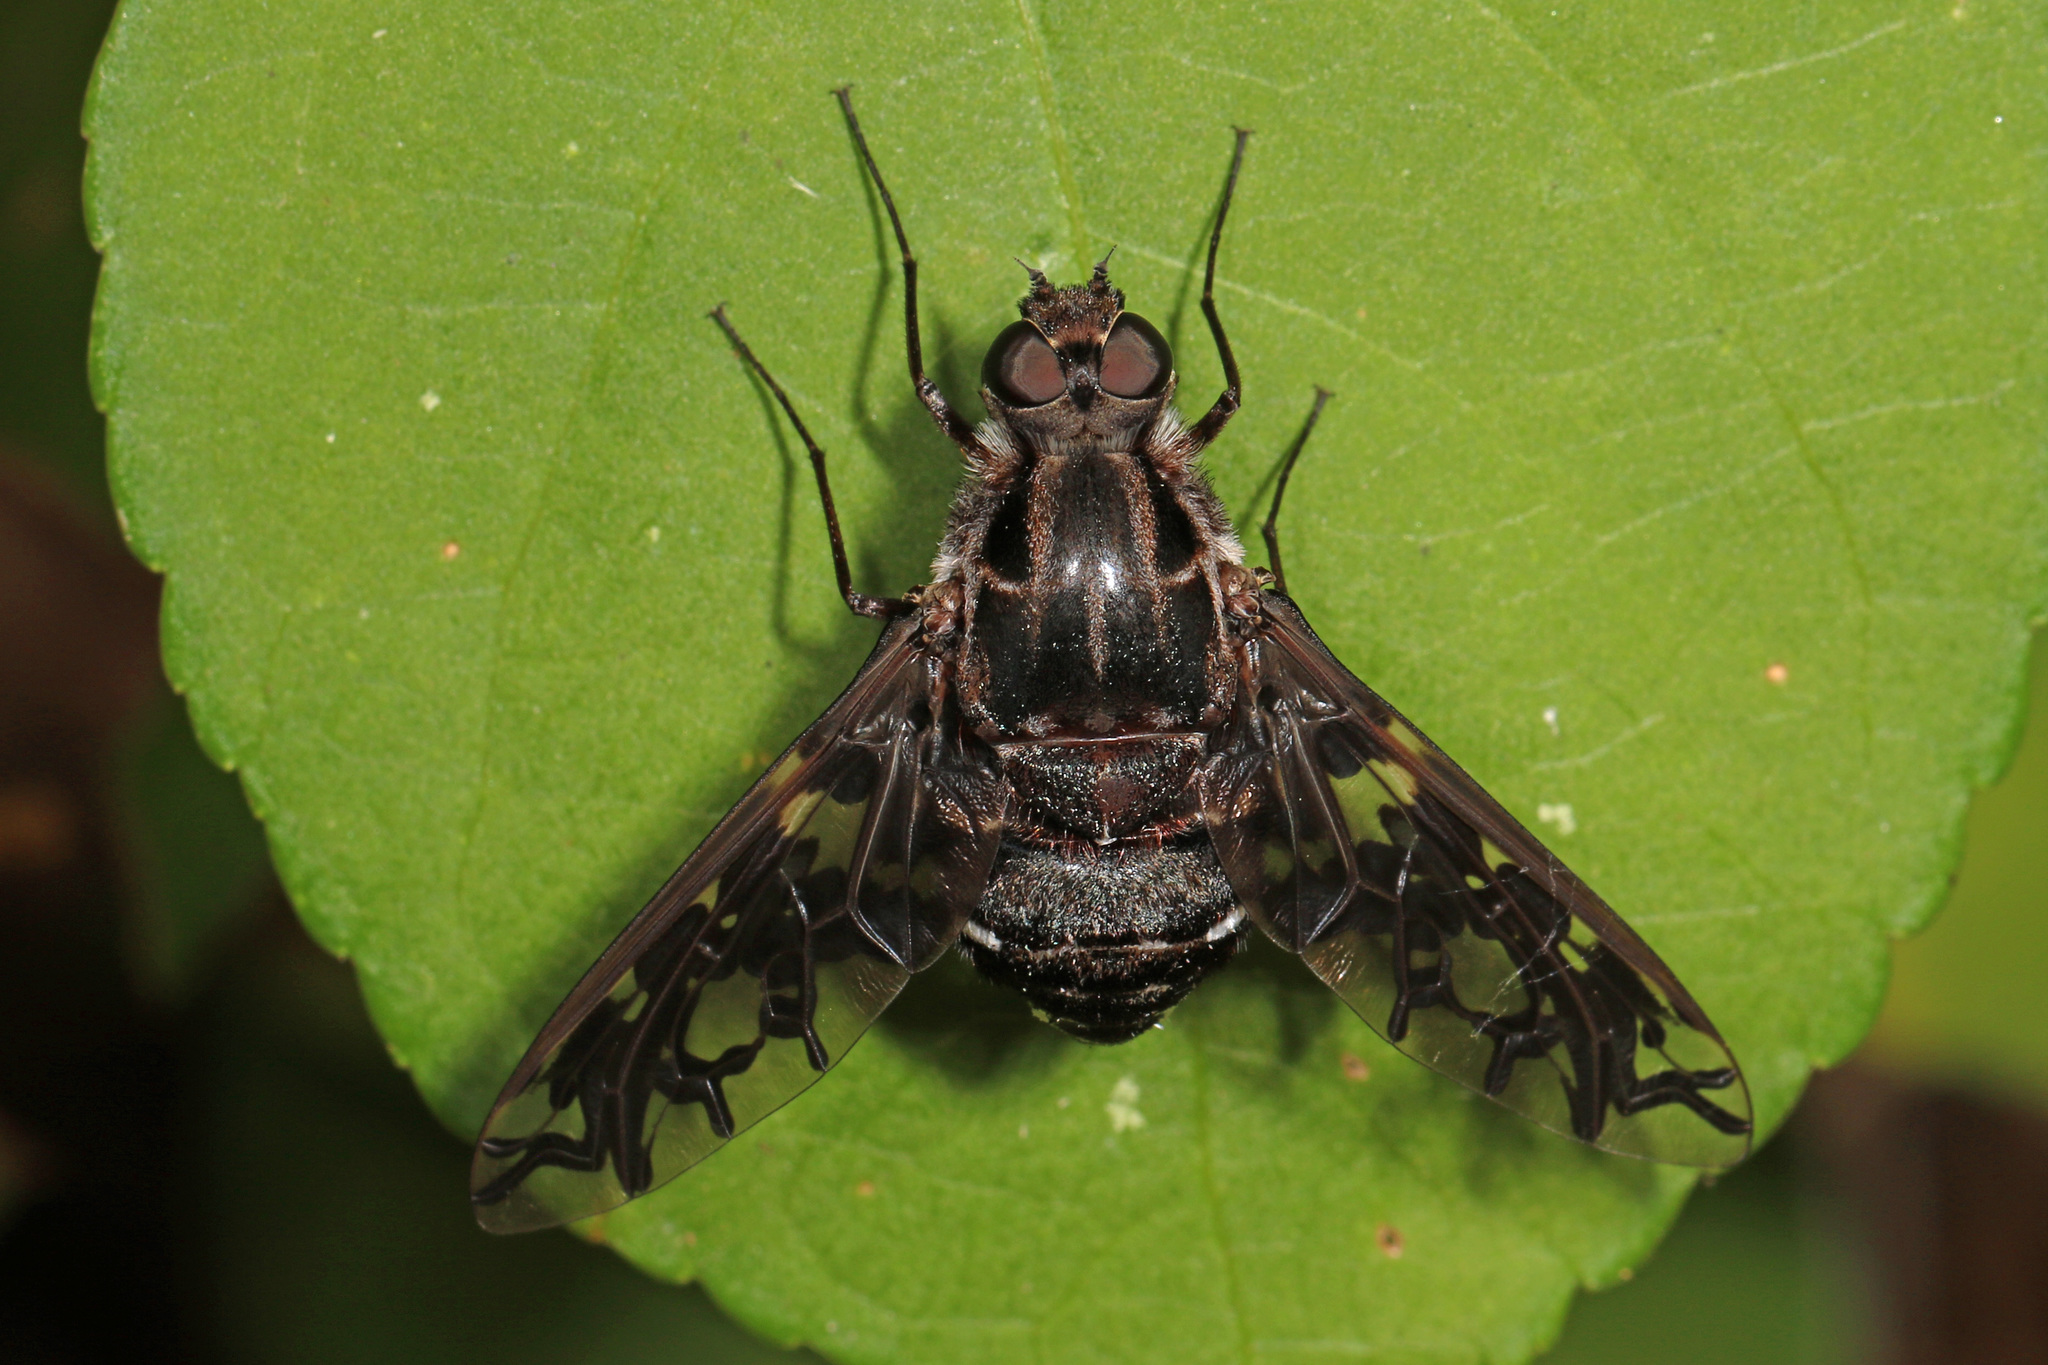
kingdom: Animalia
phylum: Arthropoda
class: Insecta
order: Diptera
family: Bombyliidae
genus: Xenox
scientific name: Xenox tigrinus
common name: Tiger bee fly
